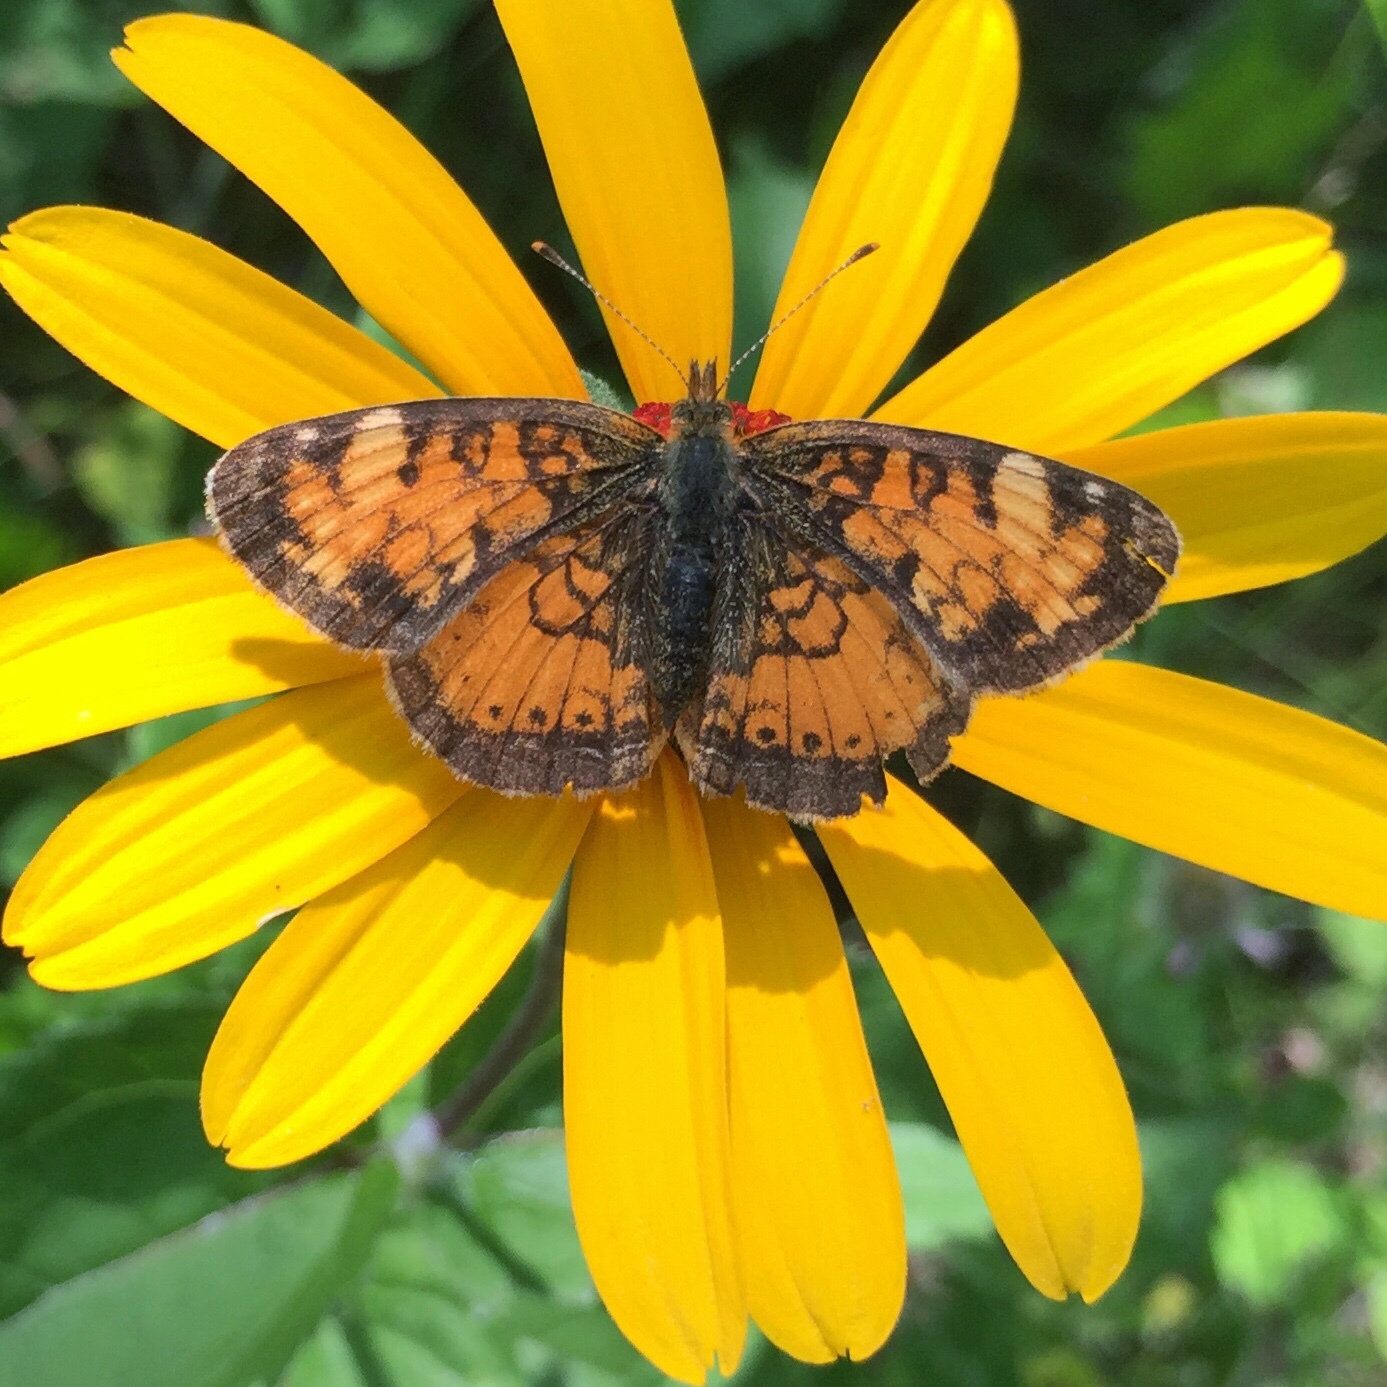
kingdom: Animalia
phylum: Arthropoda
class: Insecta
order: Lepidoptera
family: Nymphalidae
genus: Phyciodes
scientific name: Phyciodes tharos
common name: Pearl crescent
